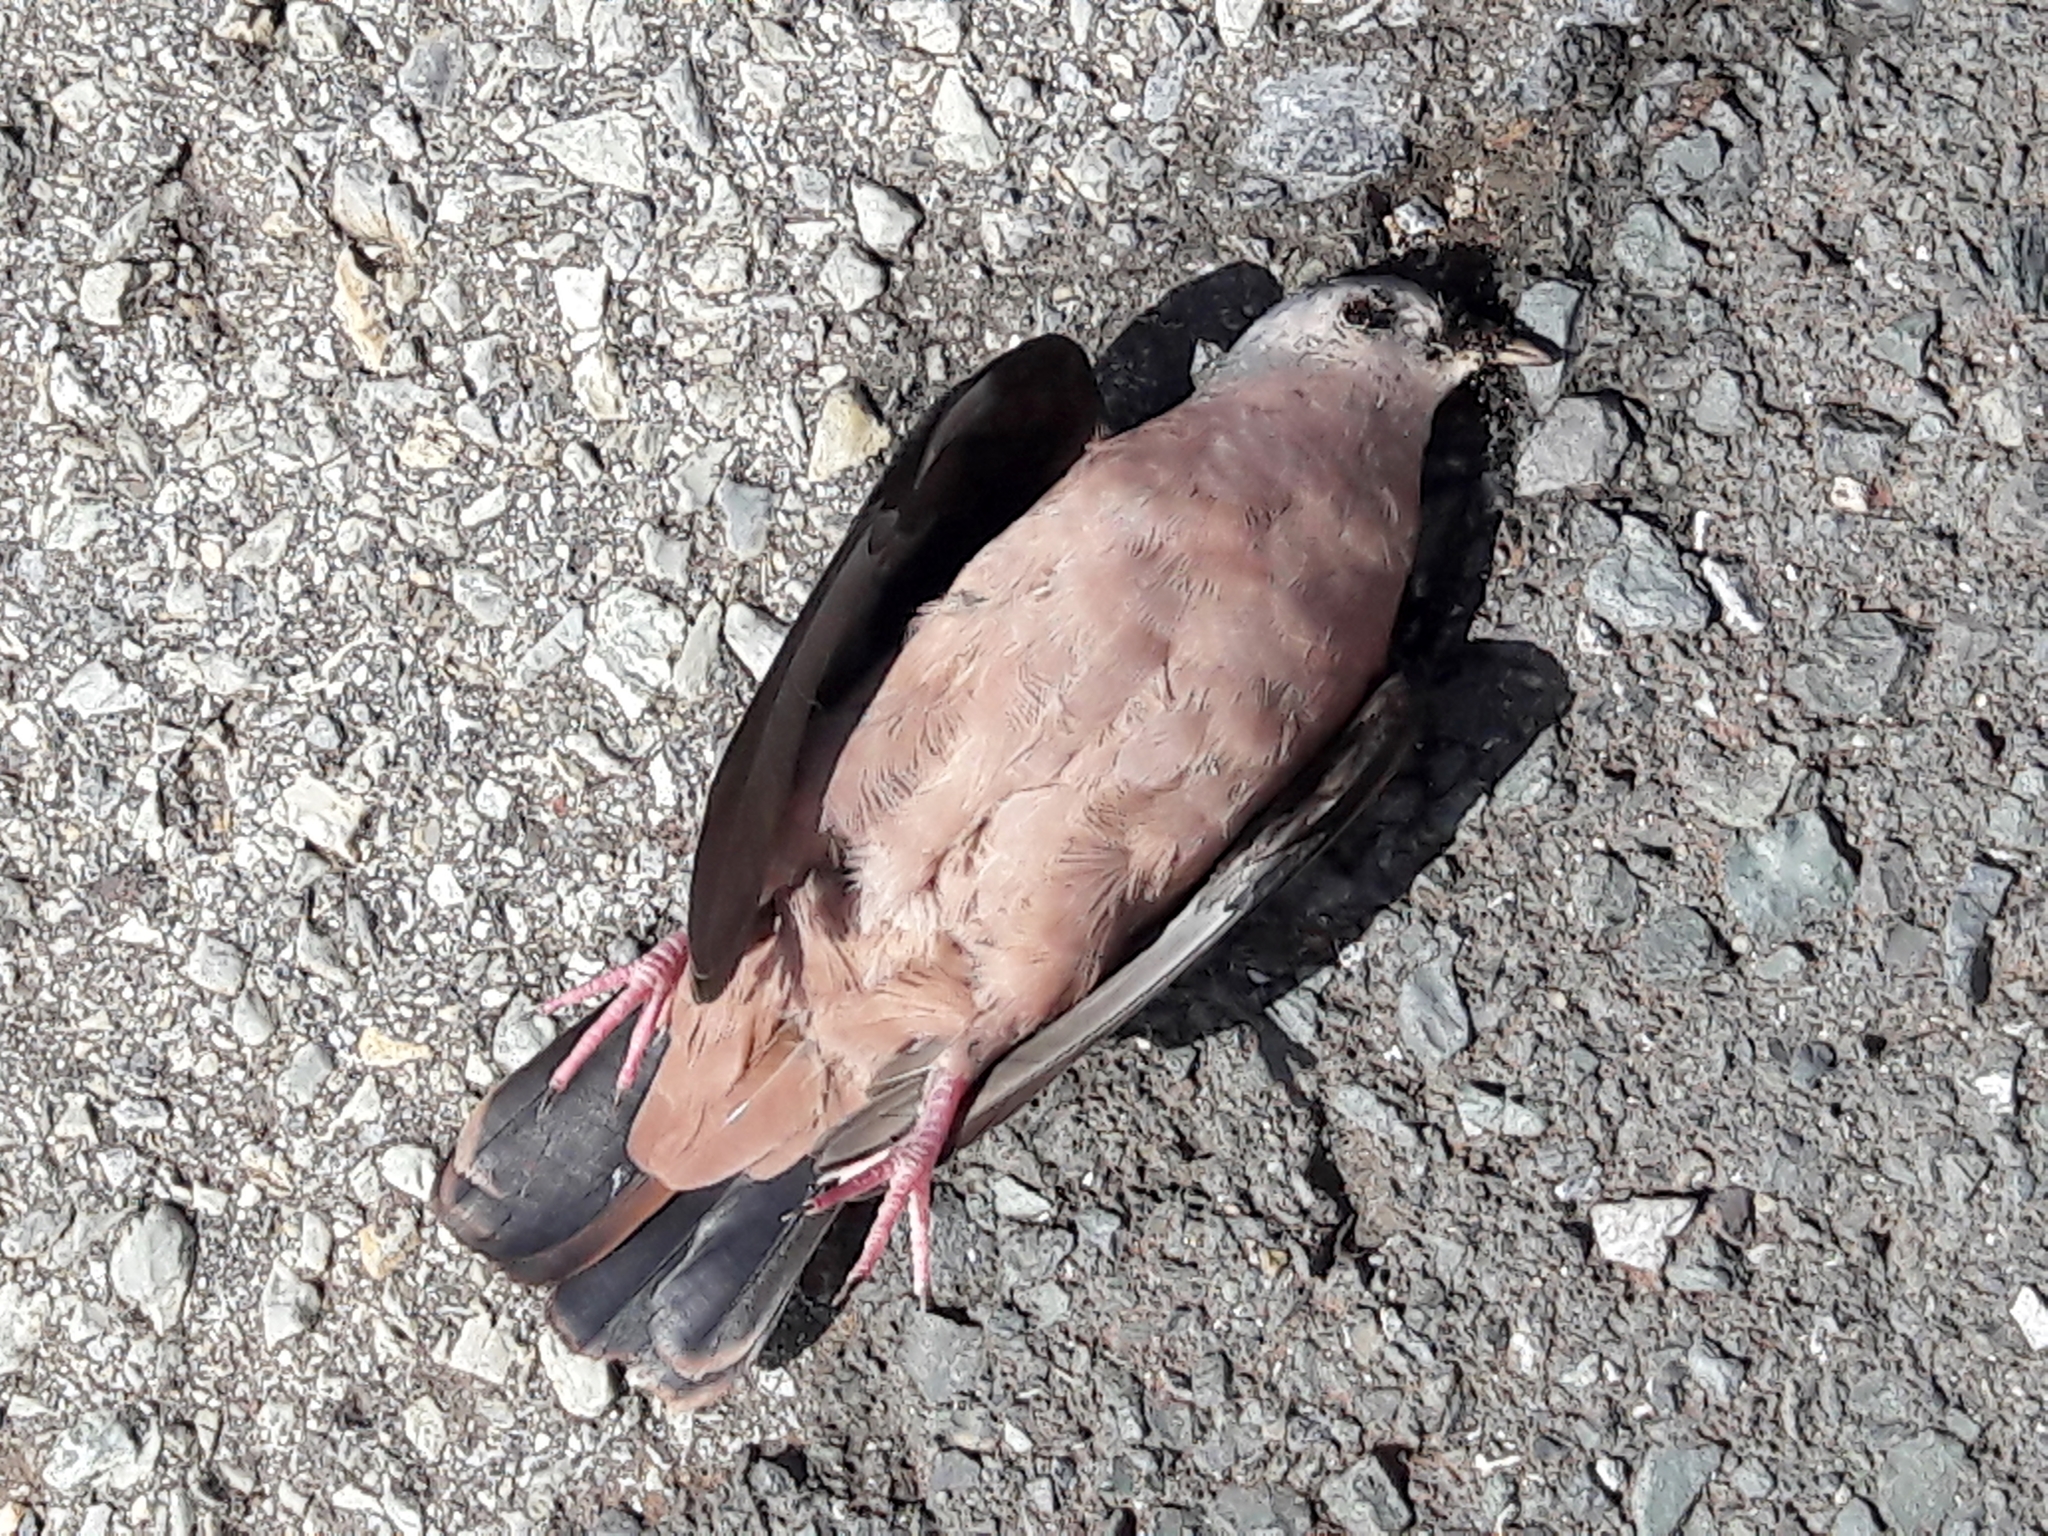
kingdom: Animalia
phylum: Chordata
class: Aves
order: Columbiformes
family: Columbidae
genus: Columbina
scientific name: Columbina talpacoti
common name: Ruddy ground dove
